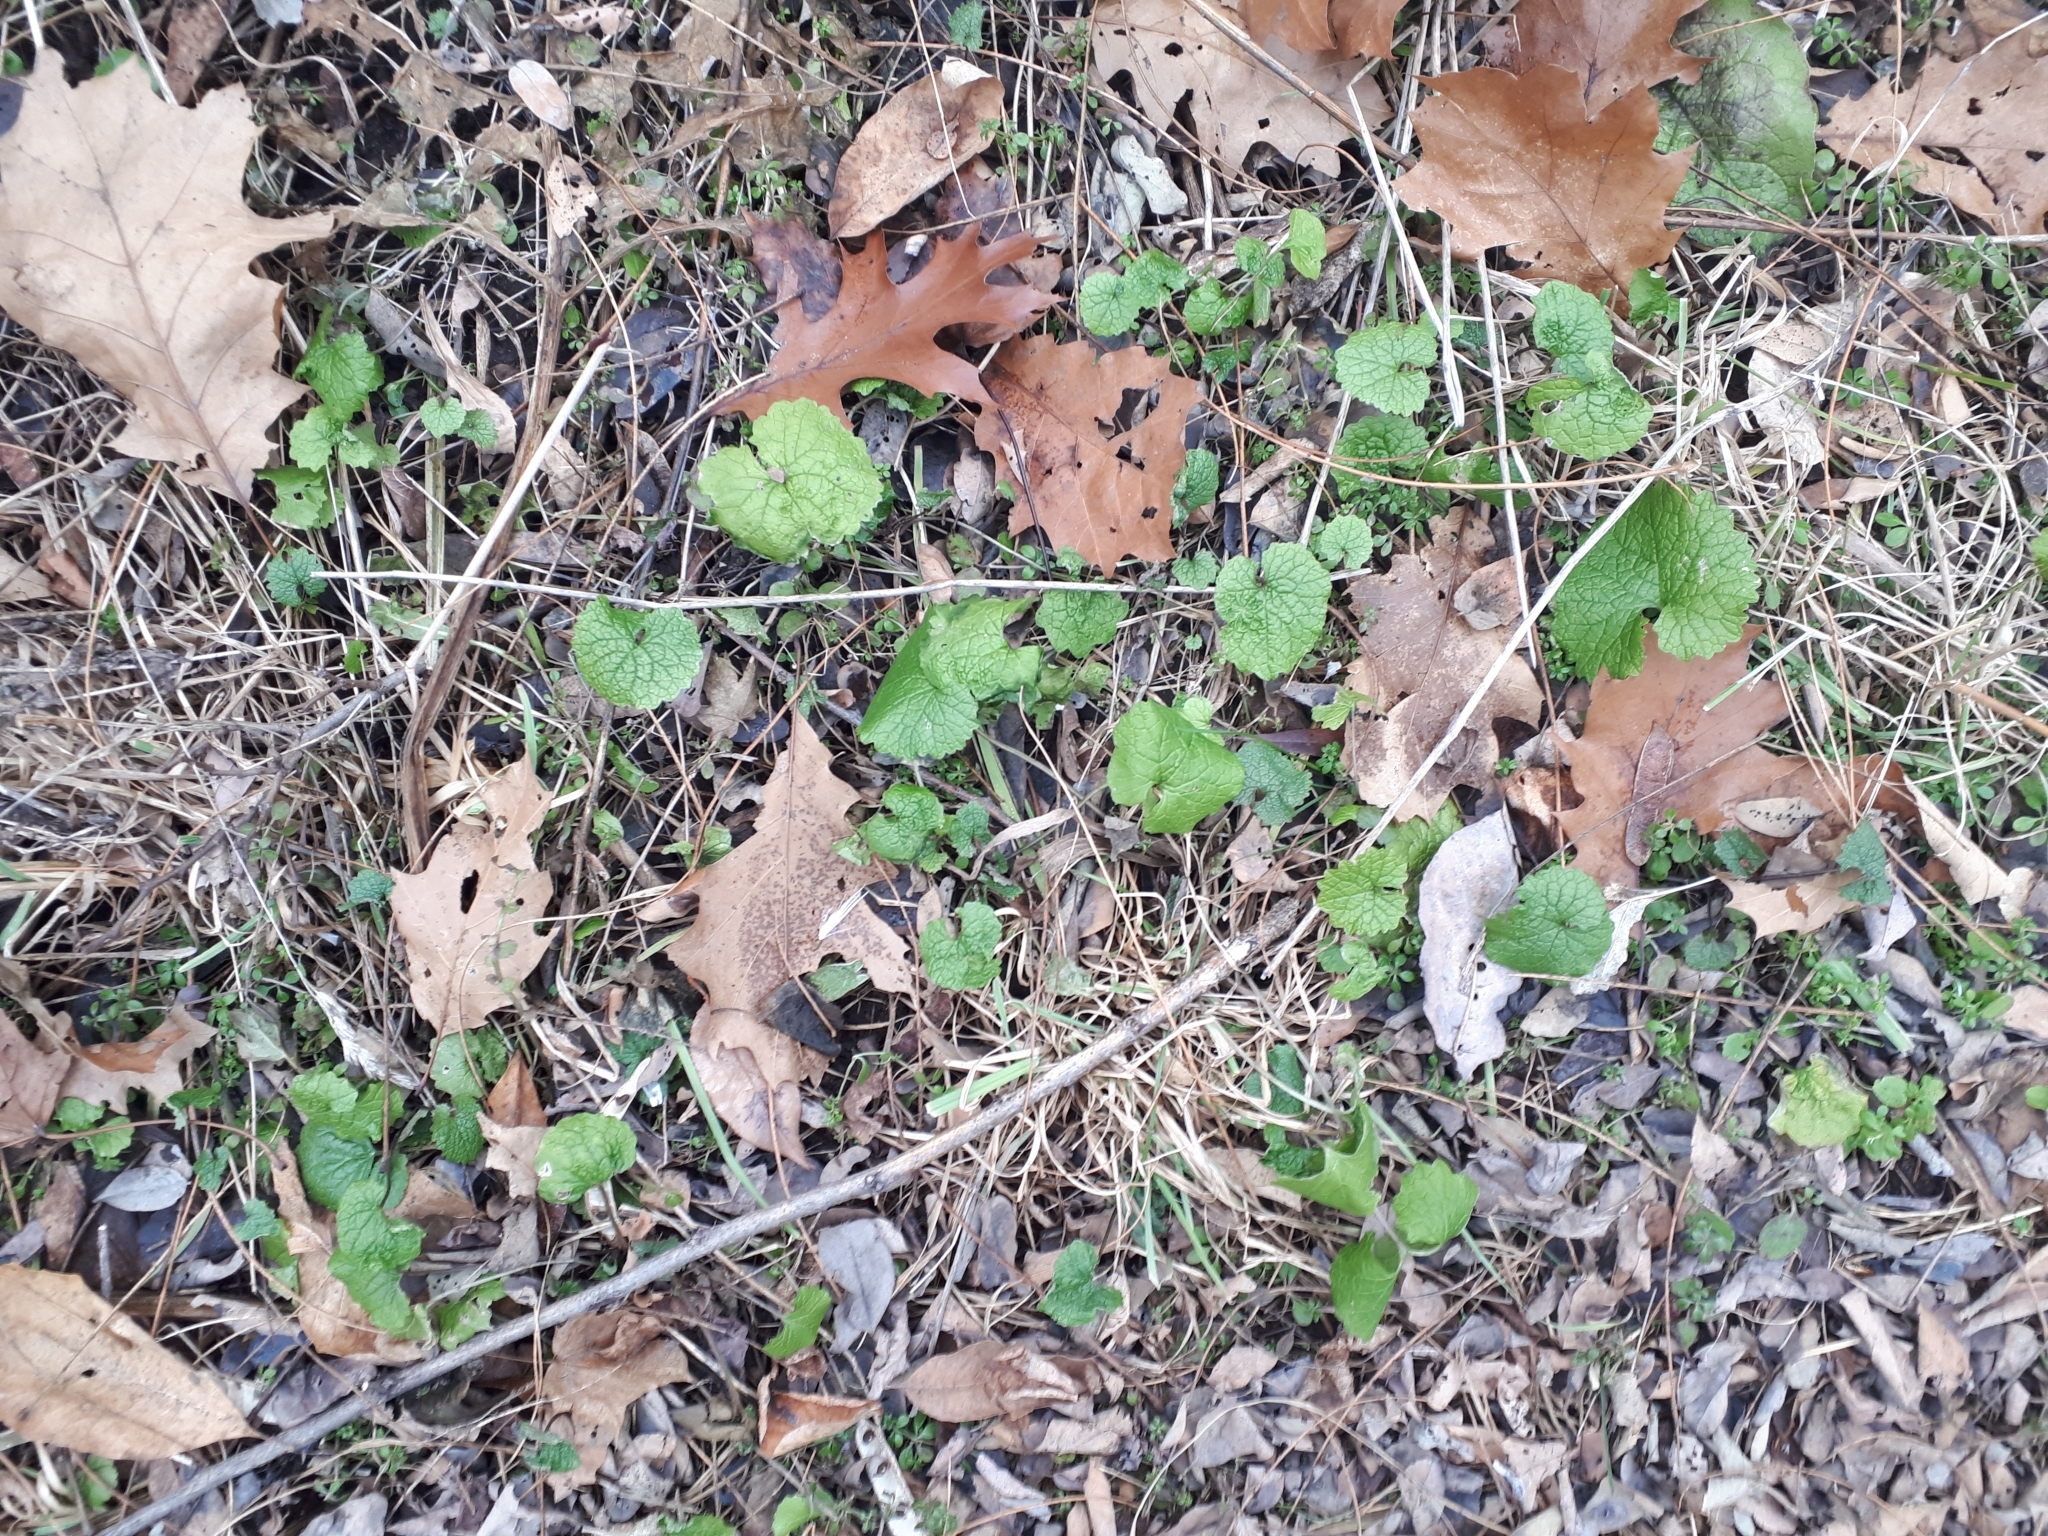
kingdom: Plantae
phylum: Tracheophyta
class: Magnoliopsida
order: Brassicales
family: Brassicaceae
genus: Alliaria
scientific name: Alliaria petiolata
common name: Garlic mustard
